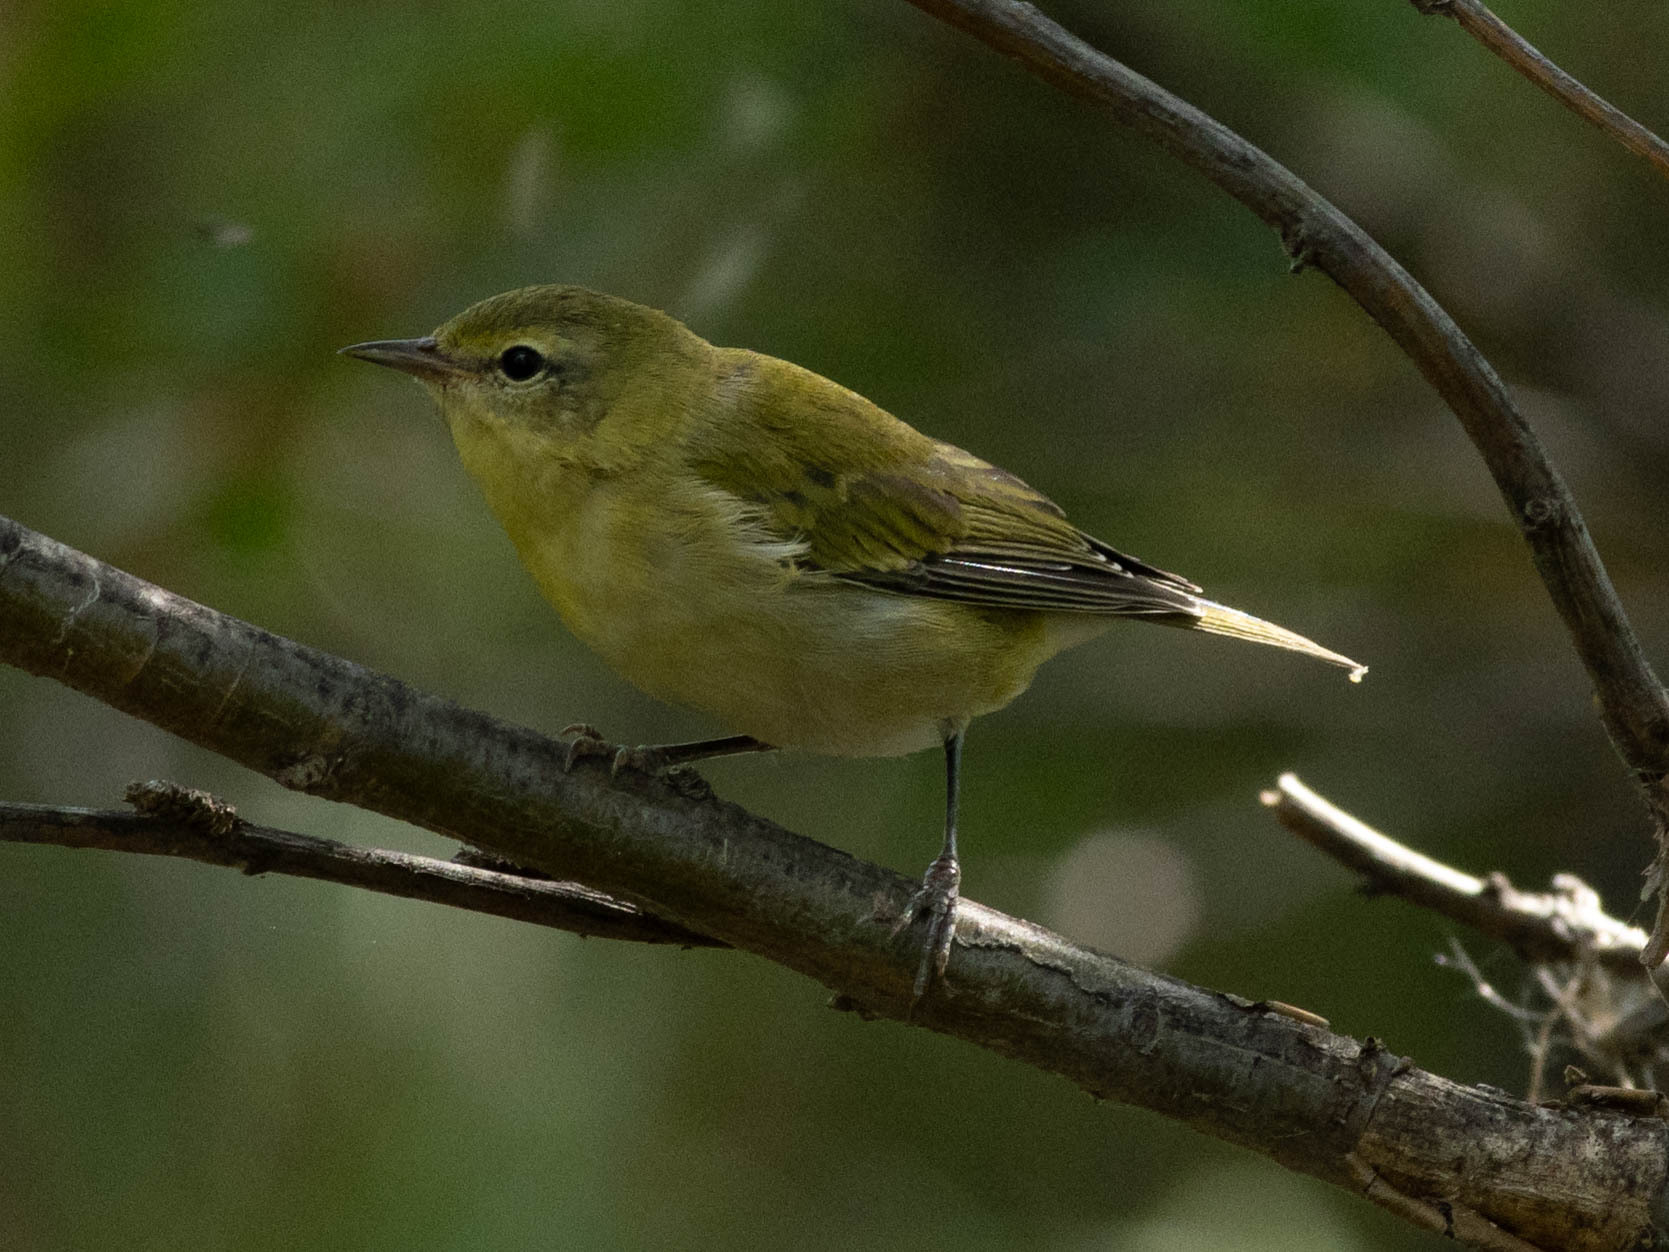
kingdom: Animalia
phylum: Chordata
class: Aves
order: Passeriformes
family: Parulidae
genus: Leiothlypis
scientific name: Leiothlypis peregrina
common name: Tennessee warbler
